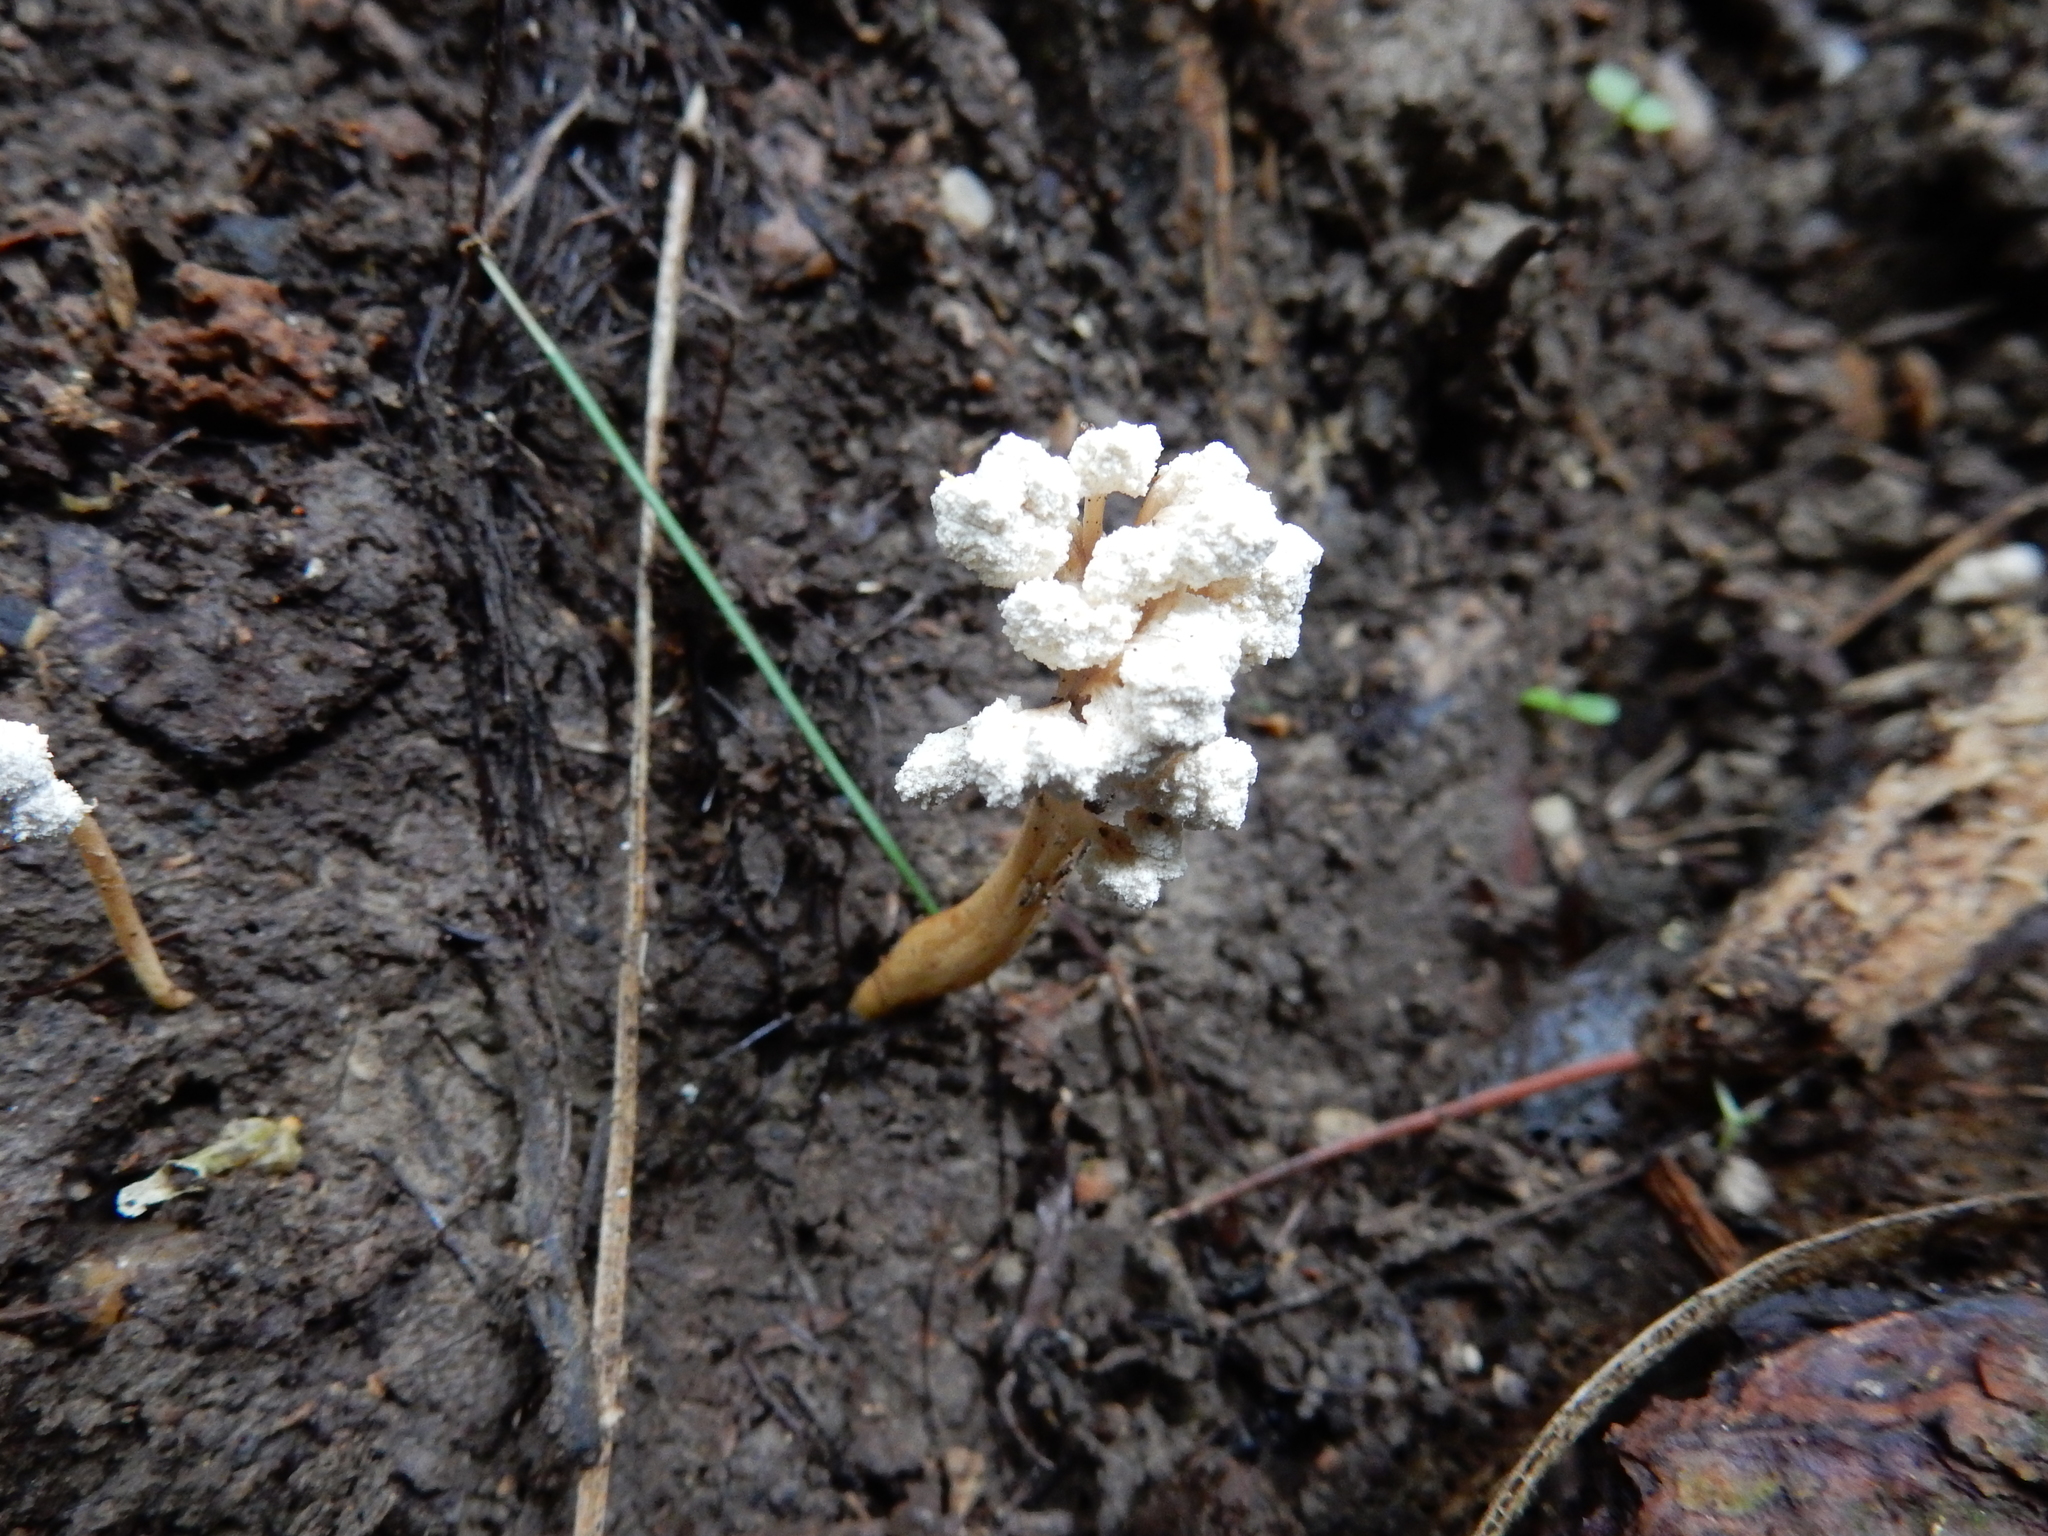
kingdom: Fungi
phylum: Ascomycota
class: Sordariomycetes
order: Hypocreales
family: Cordycipitaceae
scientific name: Cordycipitaceae
